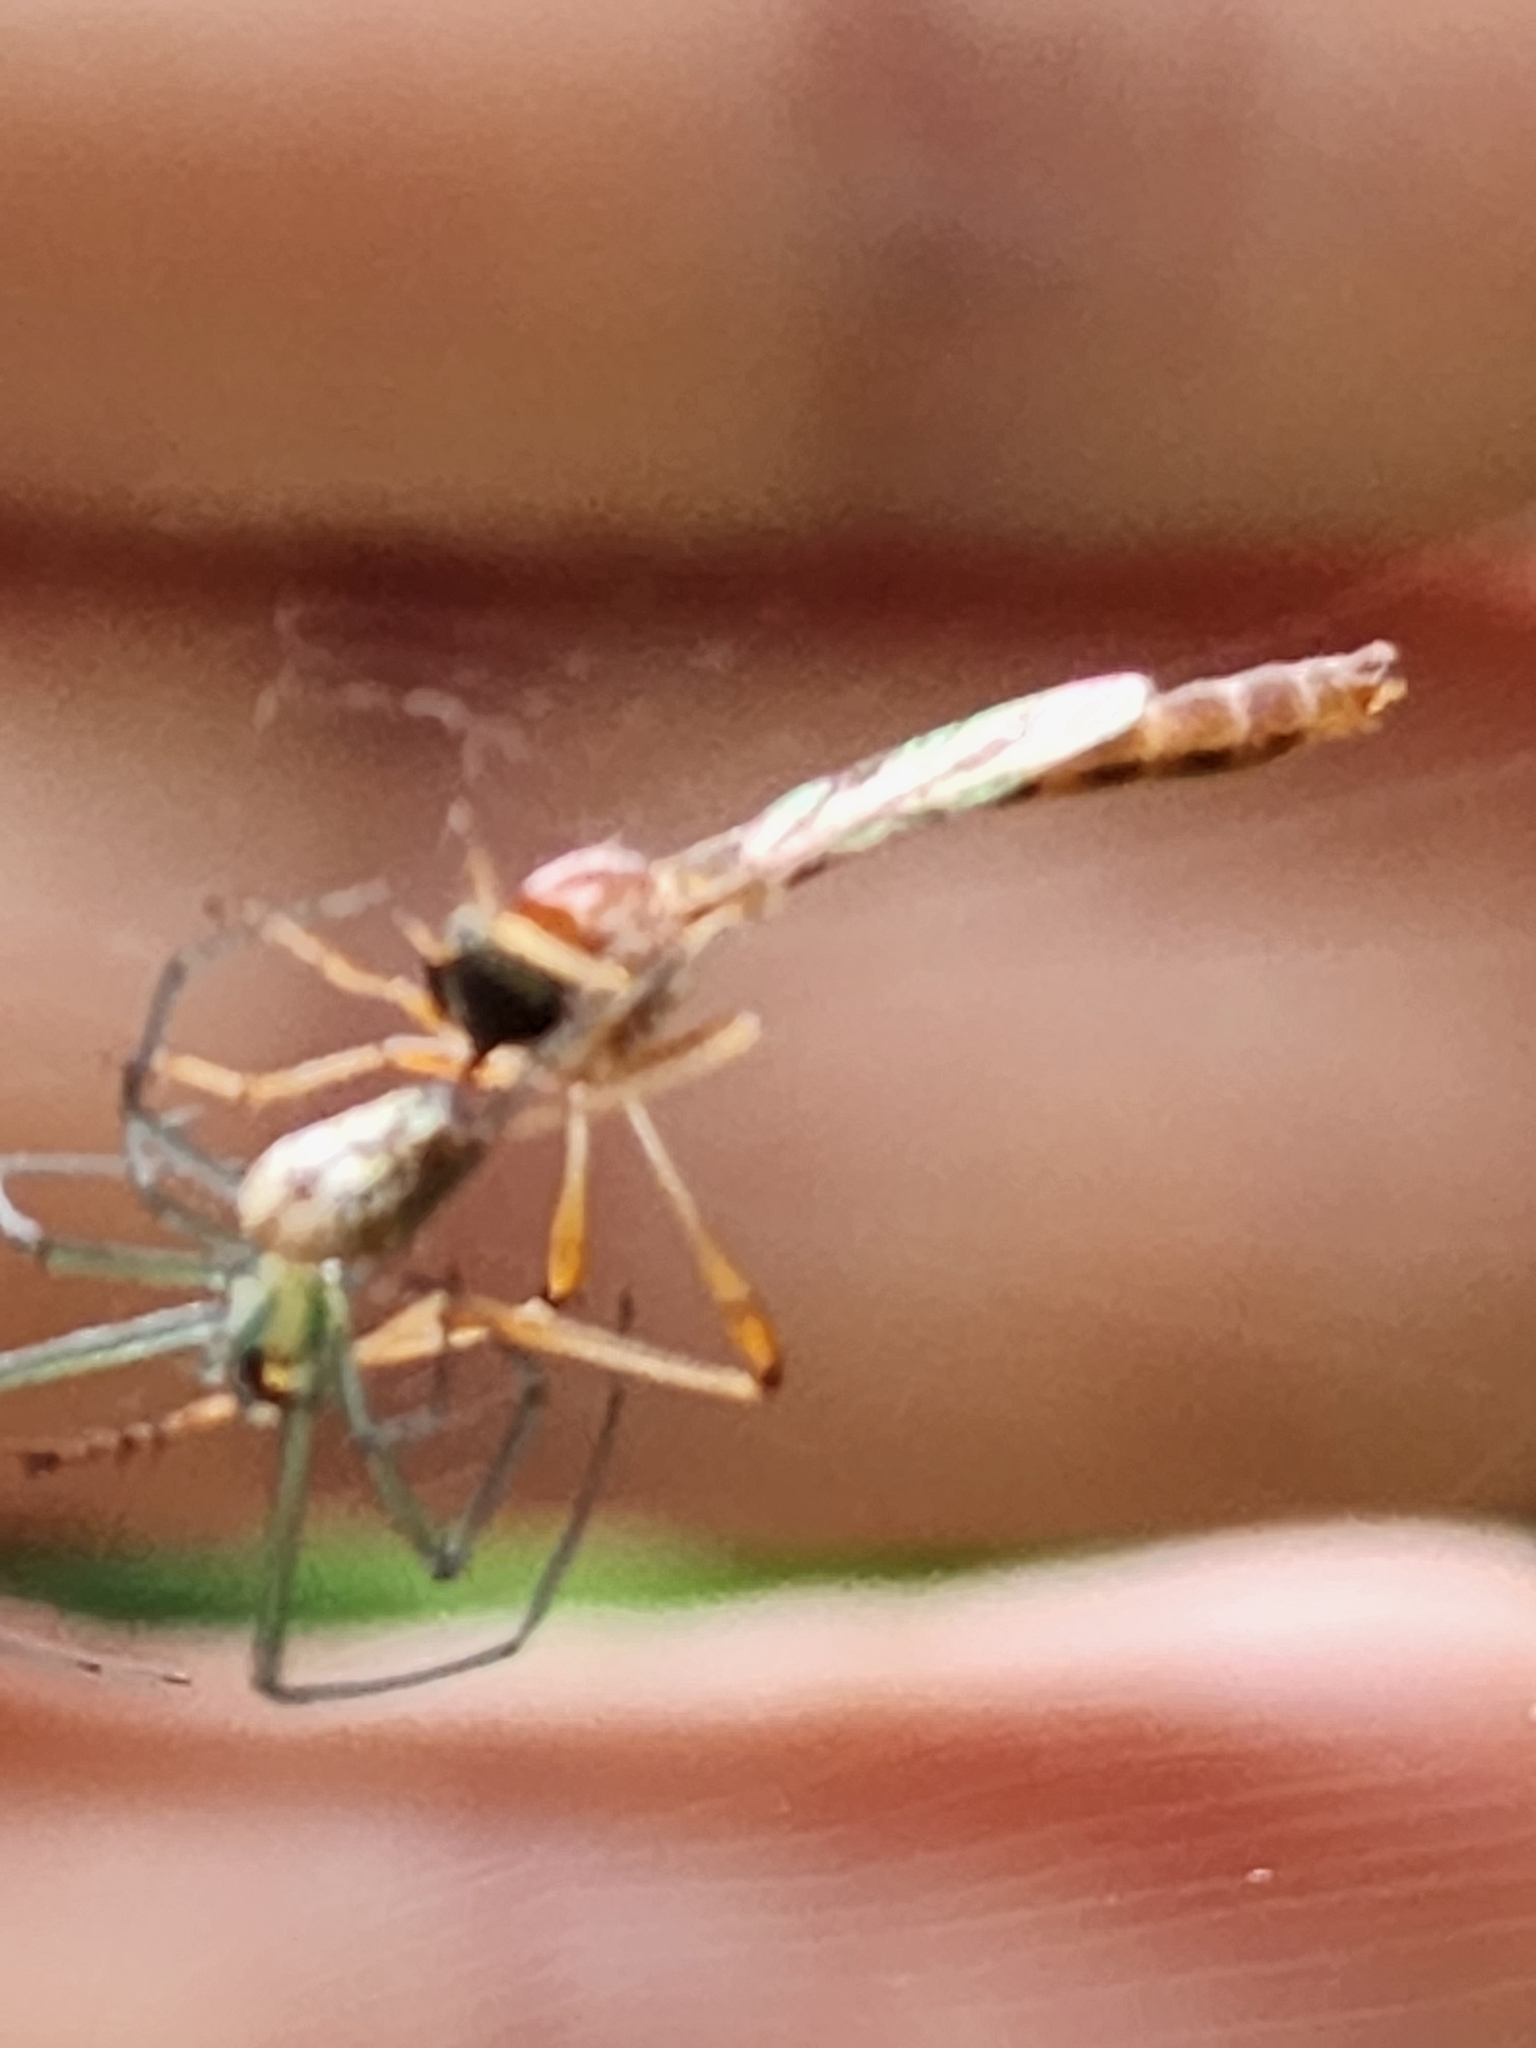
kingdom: Animalia
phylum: Arthropoda
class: Insecta
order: Diptera
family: Asilidae
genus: Tipulogaster
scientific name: Tipulogaster glabrata
